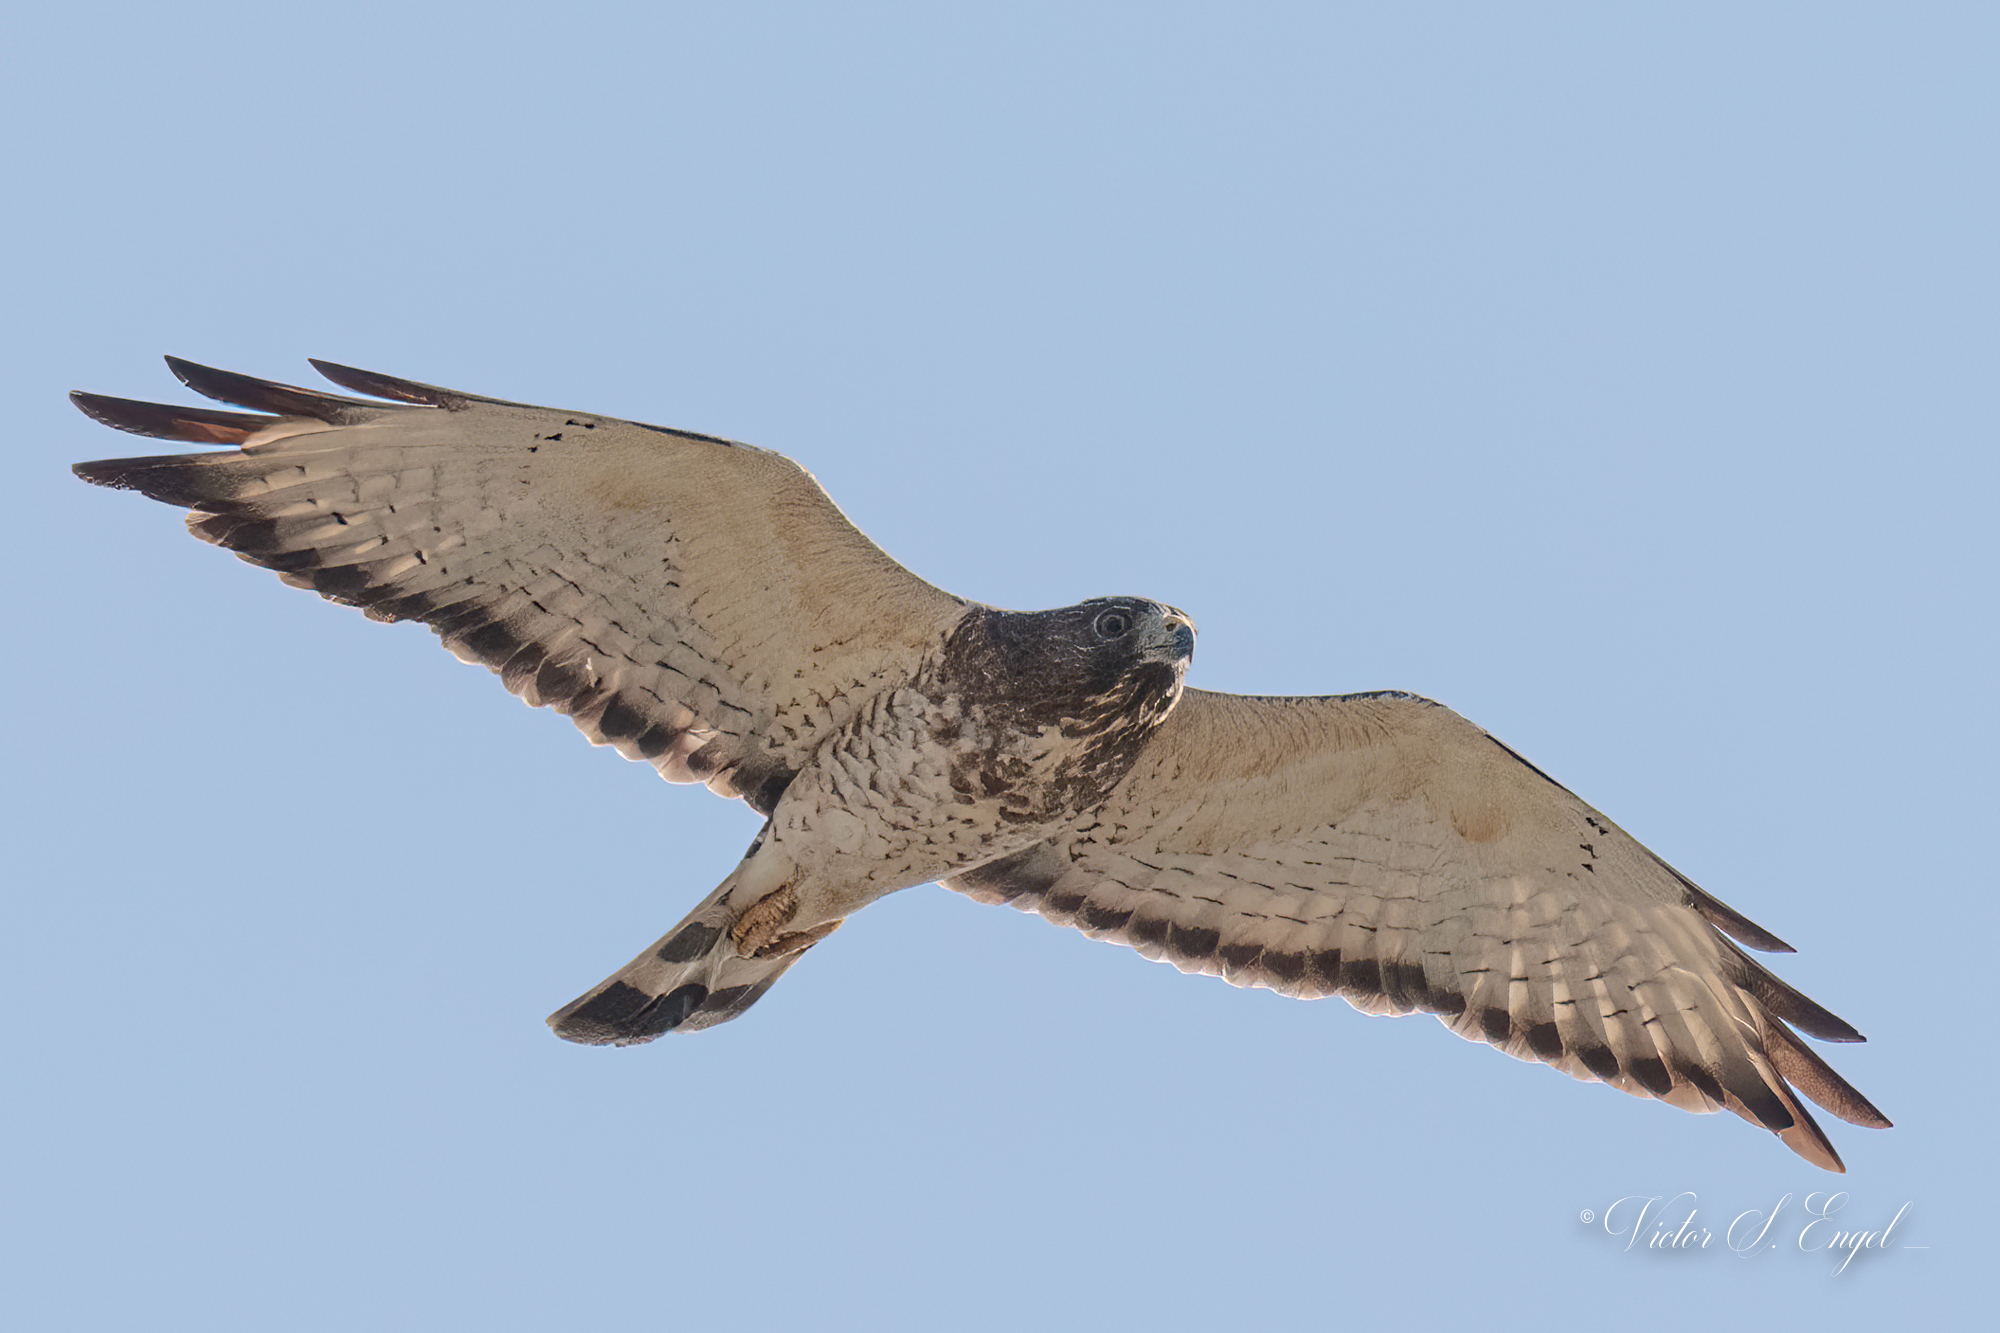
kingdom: Animalia
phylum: Chordata
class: Aves
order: Accipitriformes
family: Accipitridae
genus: Buteo
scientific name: Buteo platypterus
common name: Broad-winged hawk
